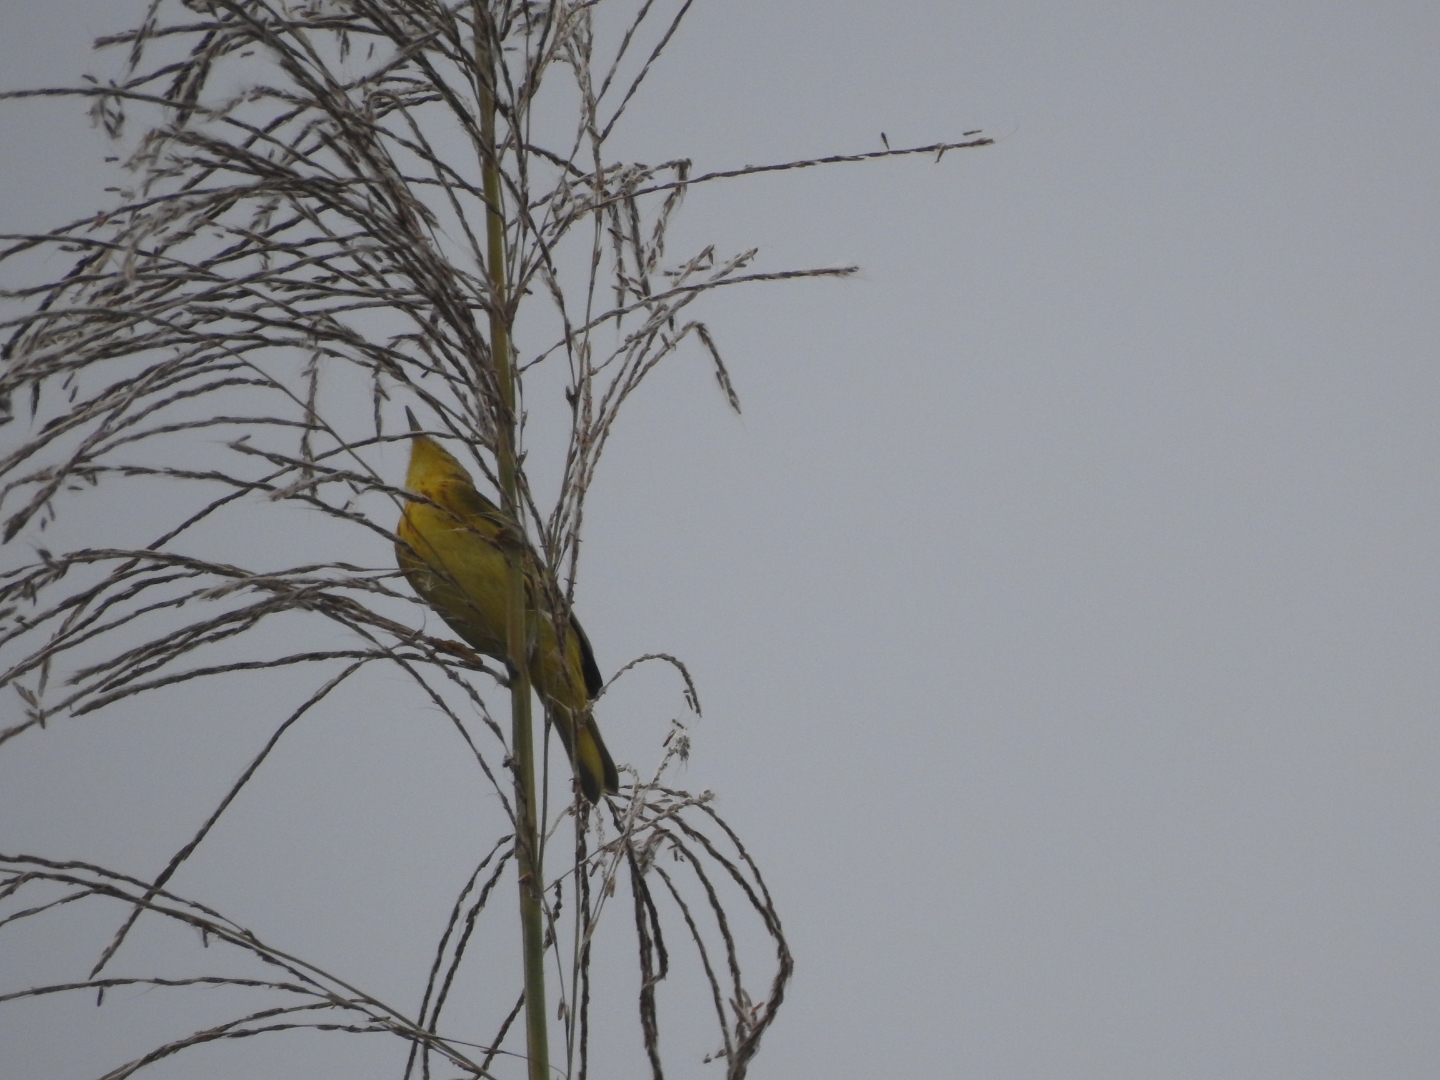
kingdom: Animalia
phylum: Chordata
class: Aves
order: Passeriformes
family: Parulidae
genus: Setophaga
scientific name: Setophaga petechia
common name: Yellow warbler
